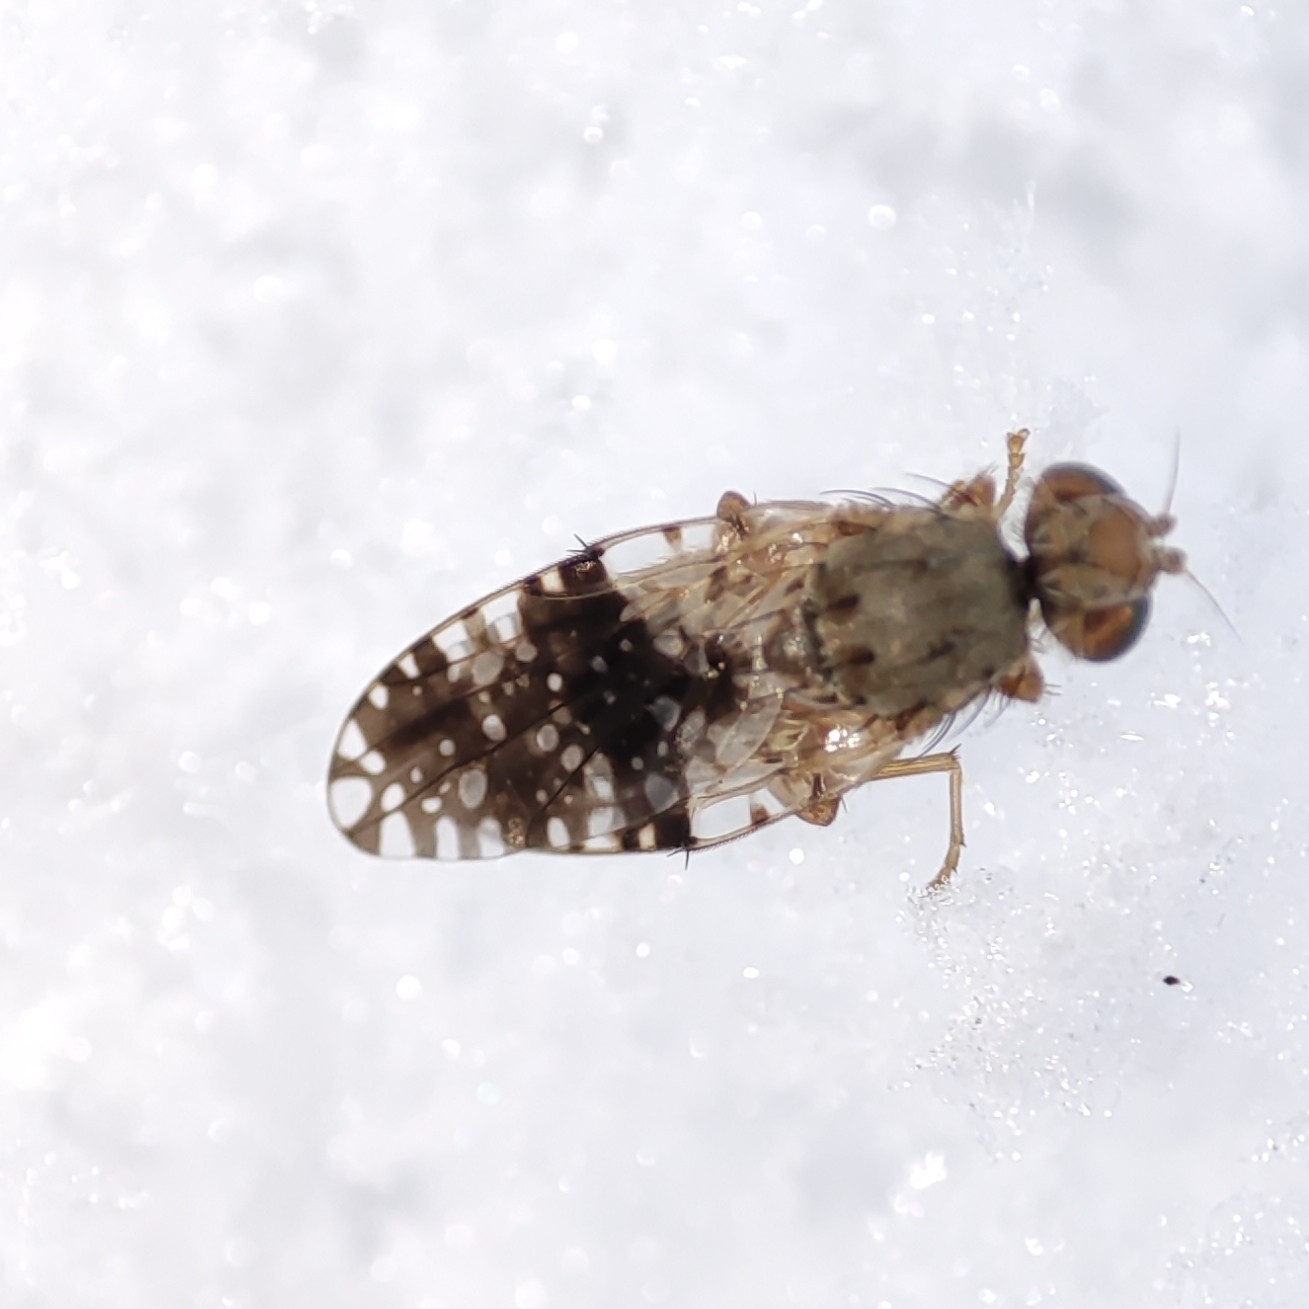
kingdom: Animalia
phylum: Arthropoda
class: Insecta
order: Diptera
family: Tephritidae
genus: Tephritis
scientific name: Tephritis conura
